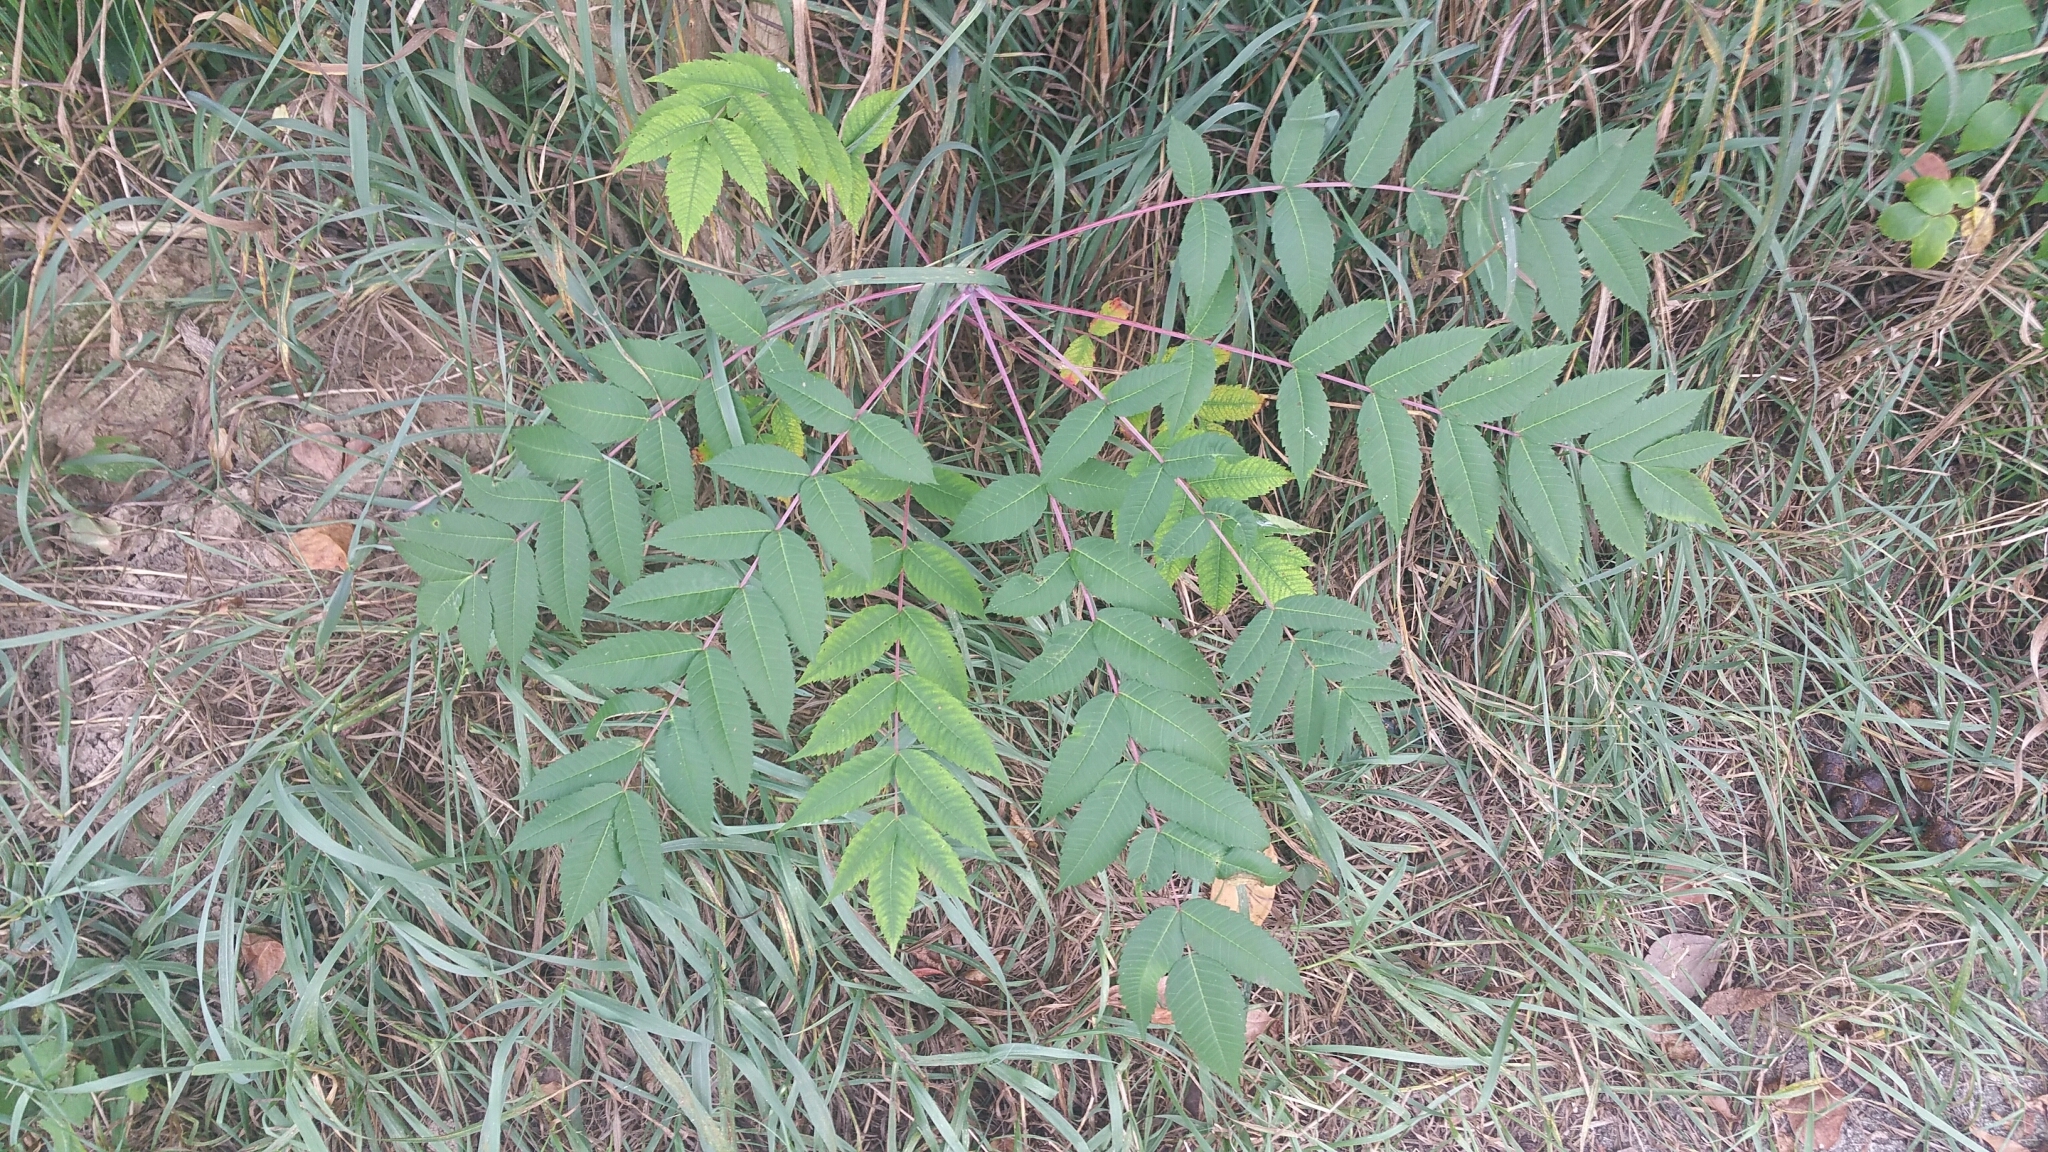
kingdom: Plantae
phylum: Tracheophyta
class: Magnoliopsida
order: Sapindales
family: Anacardiaceae
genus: Rhus
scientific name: Rhus glabra
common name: Scarlet sumac
